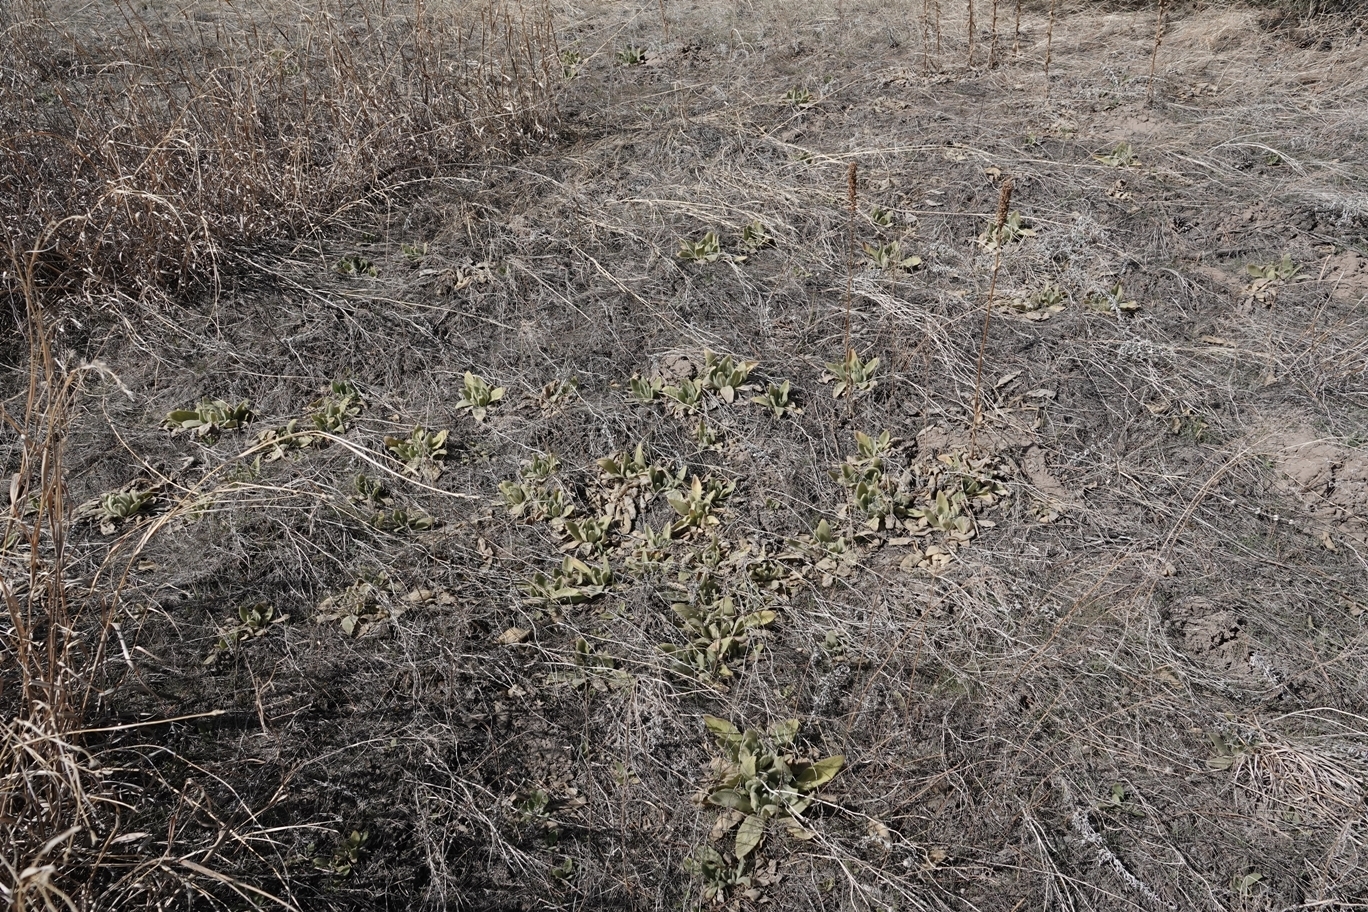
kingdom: Plantae
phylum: Tracheophyta
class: Magnoliopsida
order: Lamiales
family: Scrophulariaceae
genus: Verbascum
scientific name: Verbascum thapsus
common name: Common mullein
